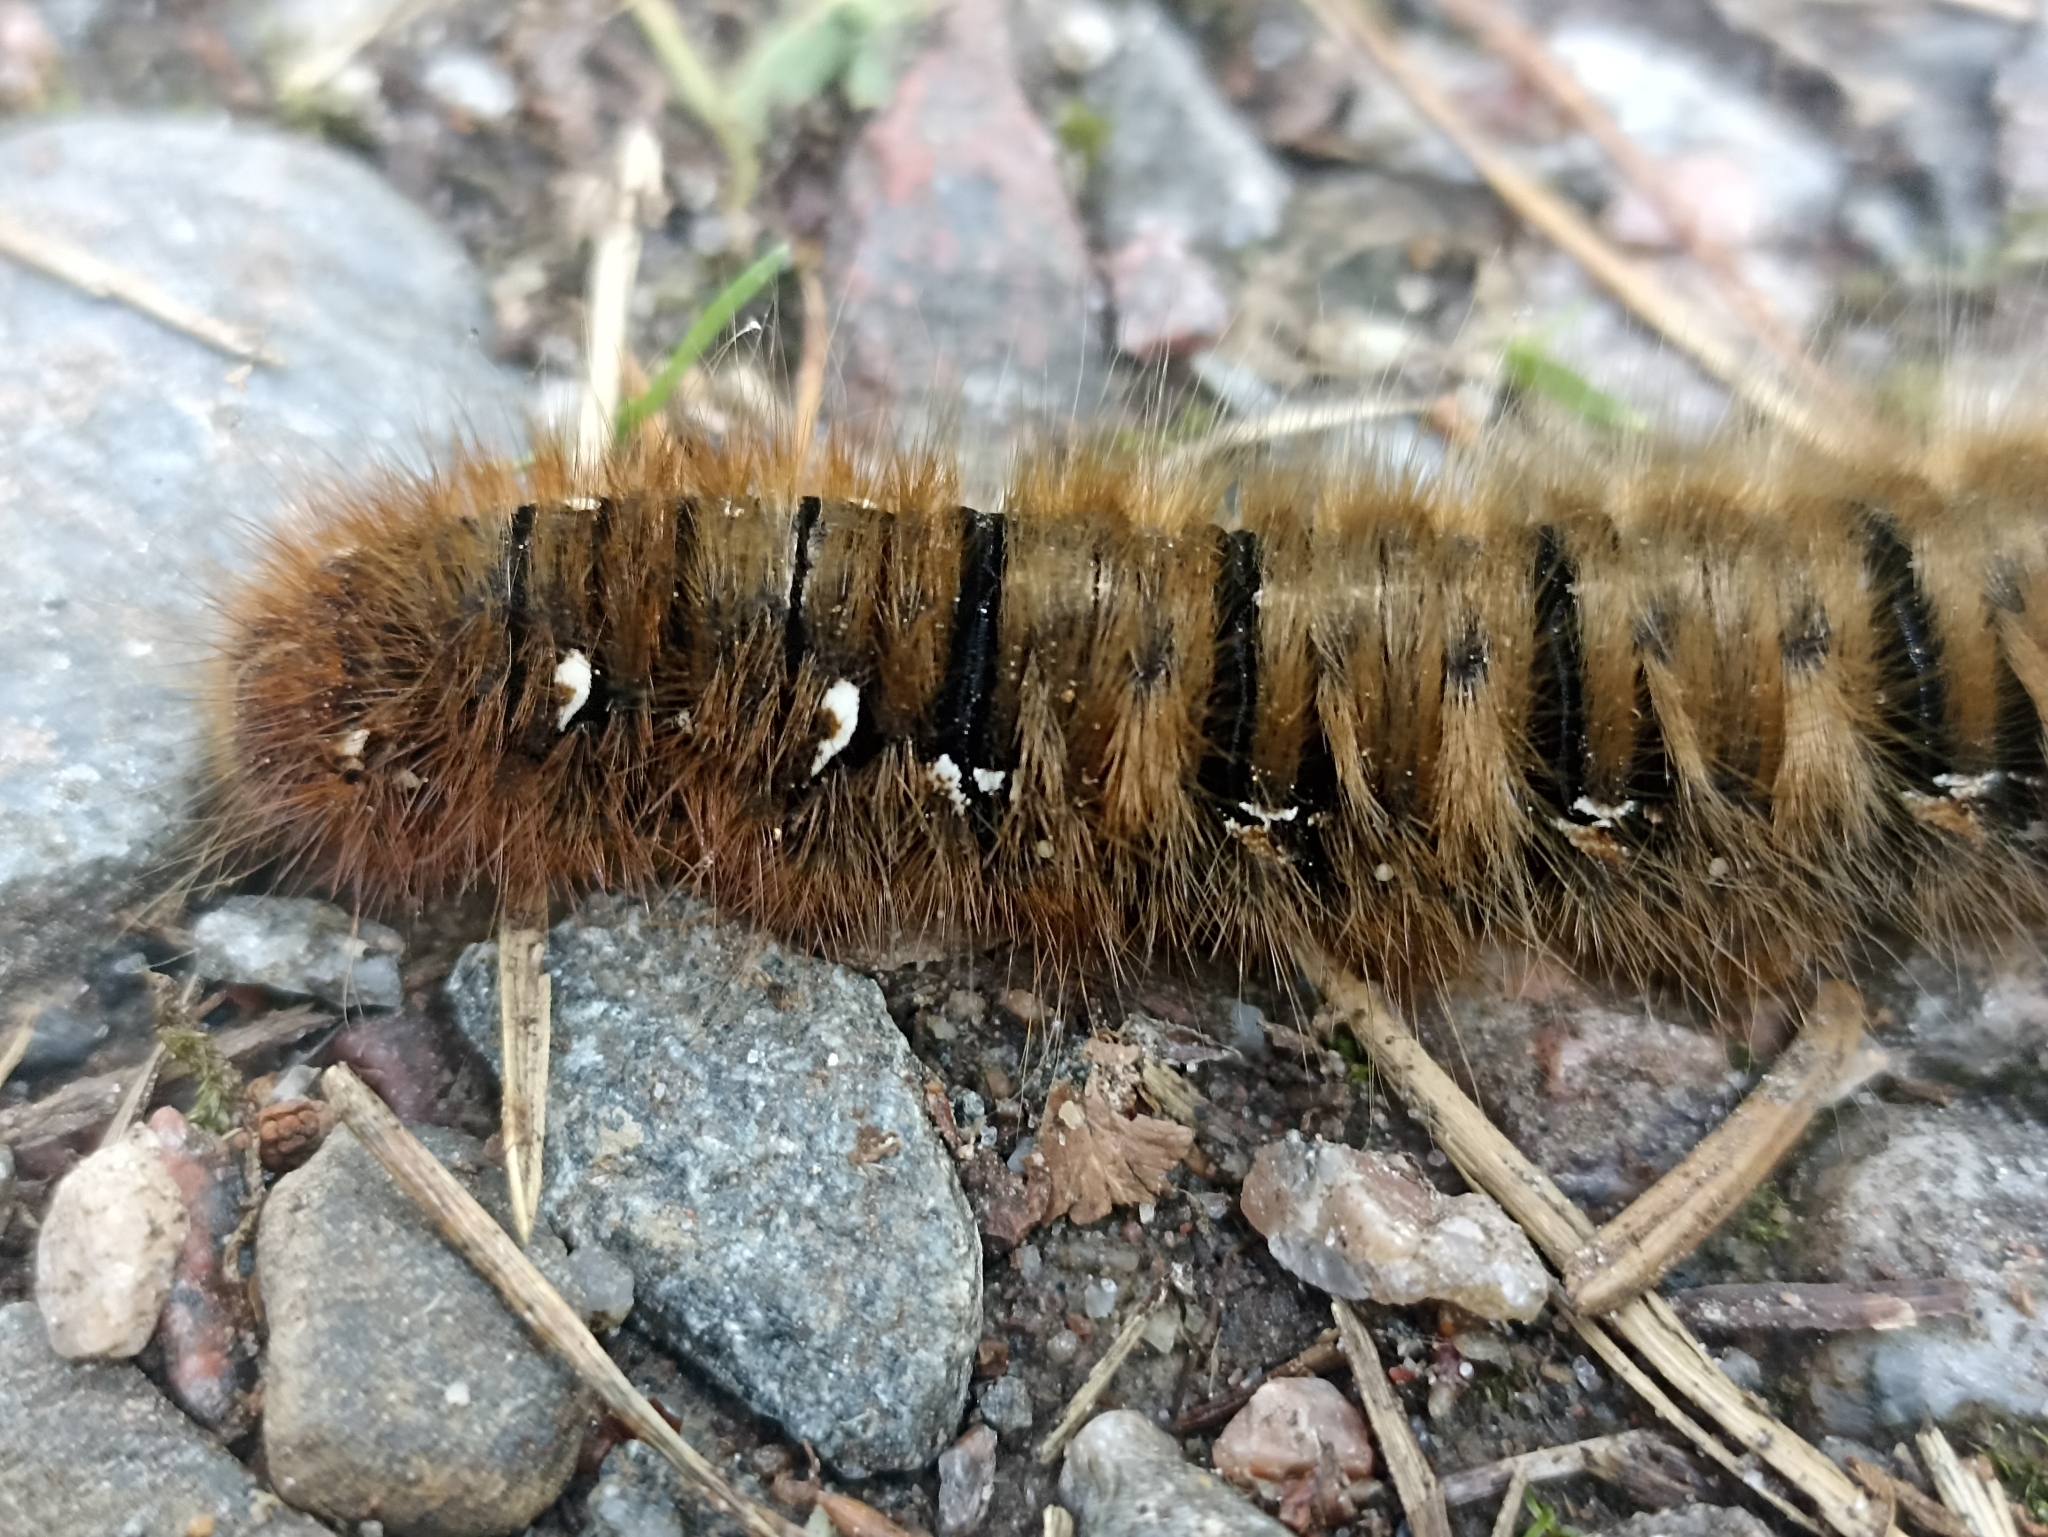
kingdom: Animalia
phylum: Arthropoda
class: Insecta
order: Lepidoptera
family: Lasiocampidae
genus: Lasiocampa
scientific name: Lasiocampa quercus
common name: Oak eggar
